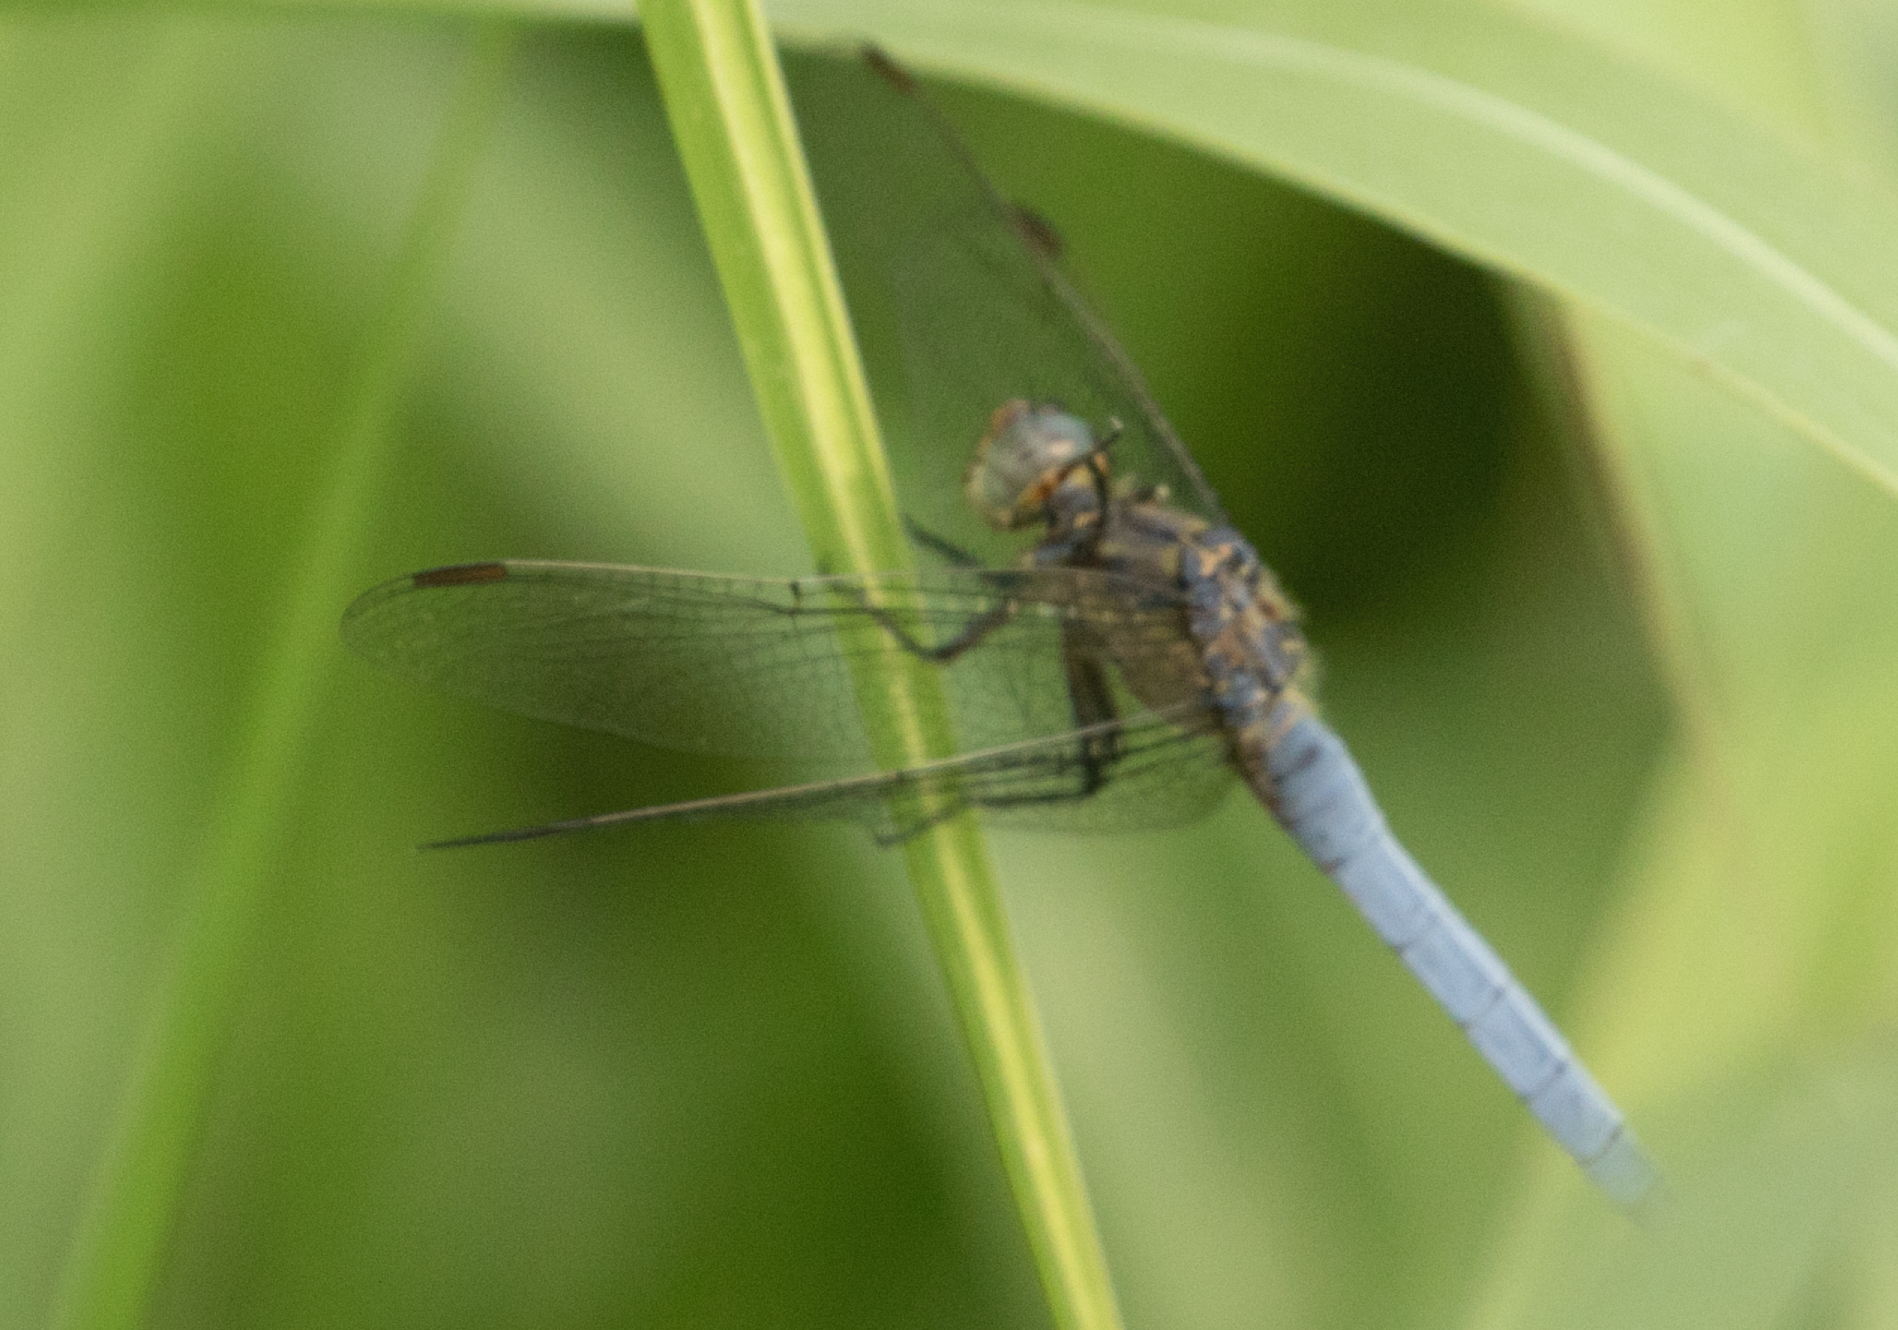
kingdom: Animalia
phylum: Arthropoda
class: Insecta
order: Odonata
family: Libellulidae
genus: Orthetrum
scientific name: Orthetrum coerulescens
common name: Keeled skimmer
